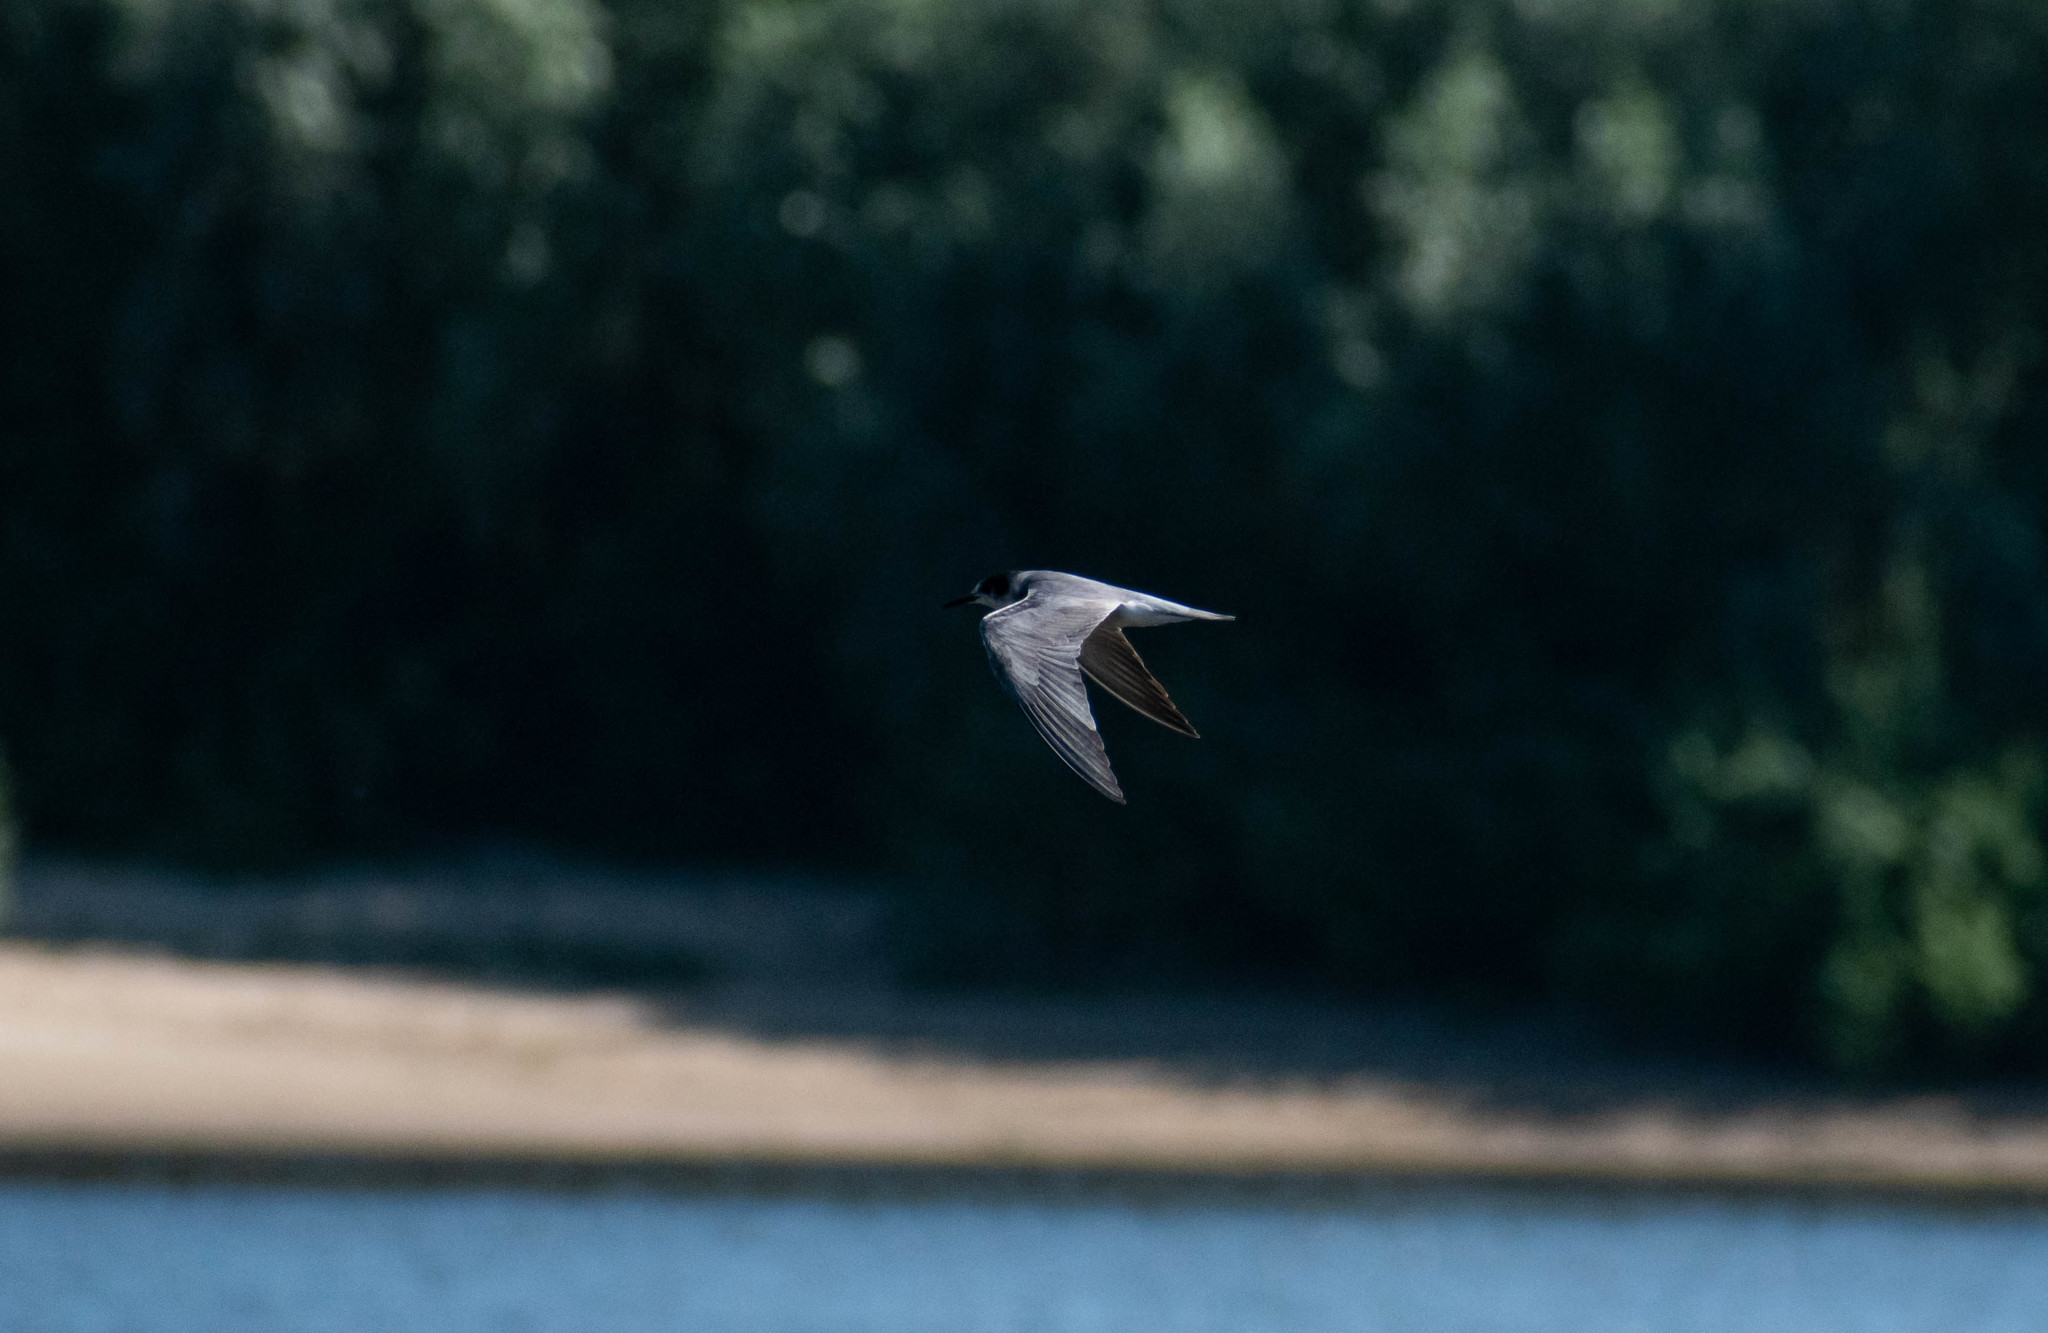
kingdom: Animalia
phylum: Chordata
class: Aves
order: Charadriiformes
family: Laridae
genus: Chlidonias
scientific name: Chlidonias niger
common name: Black tern
